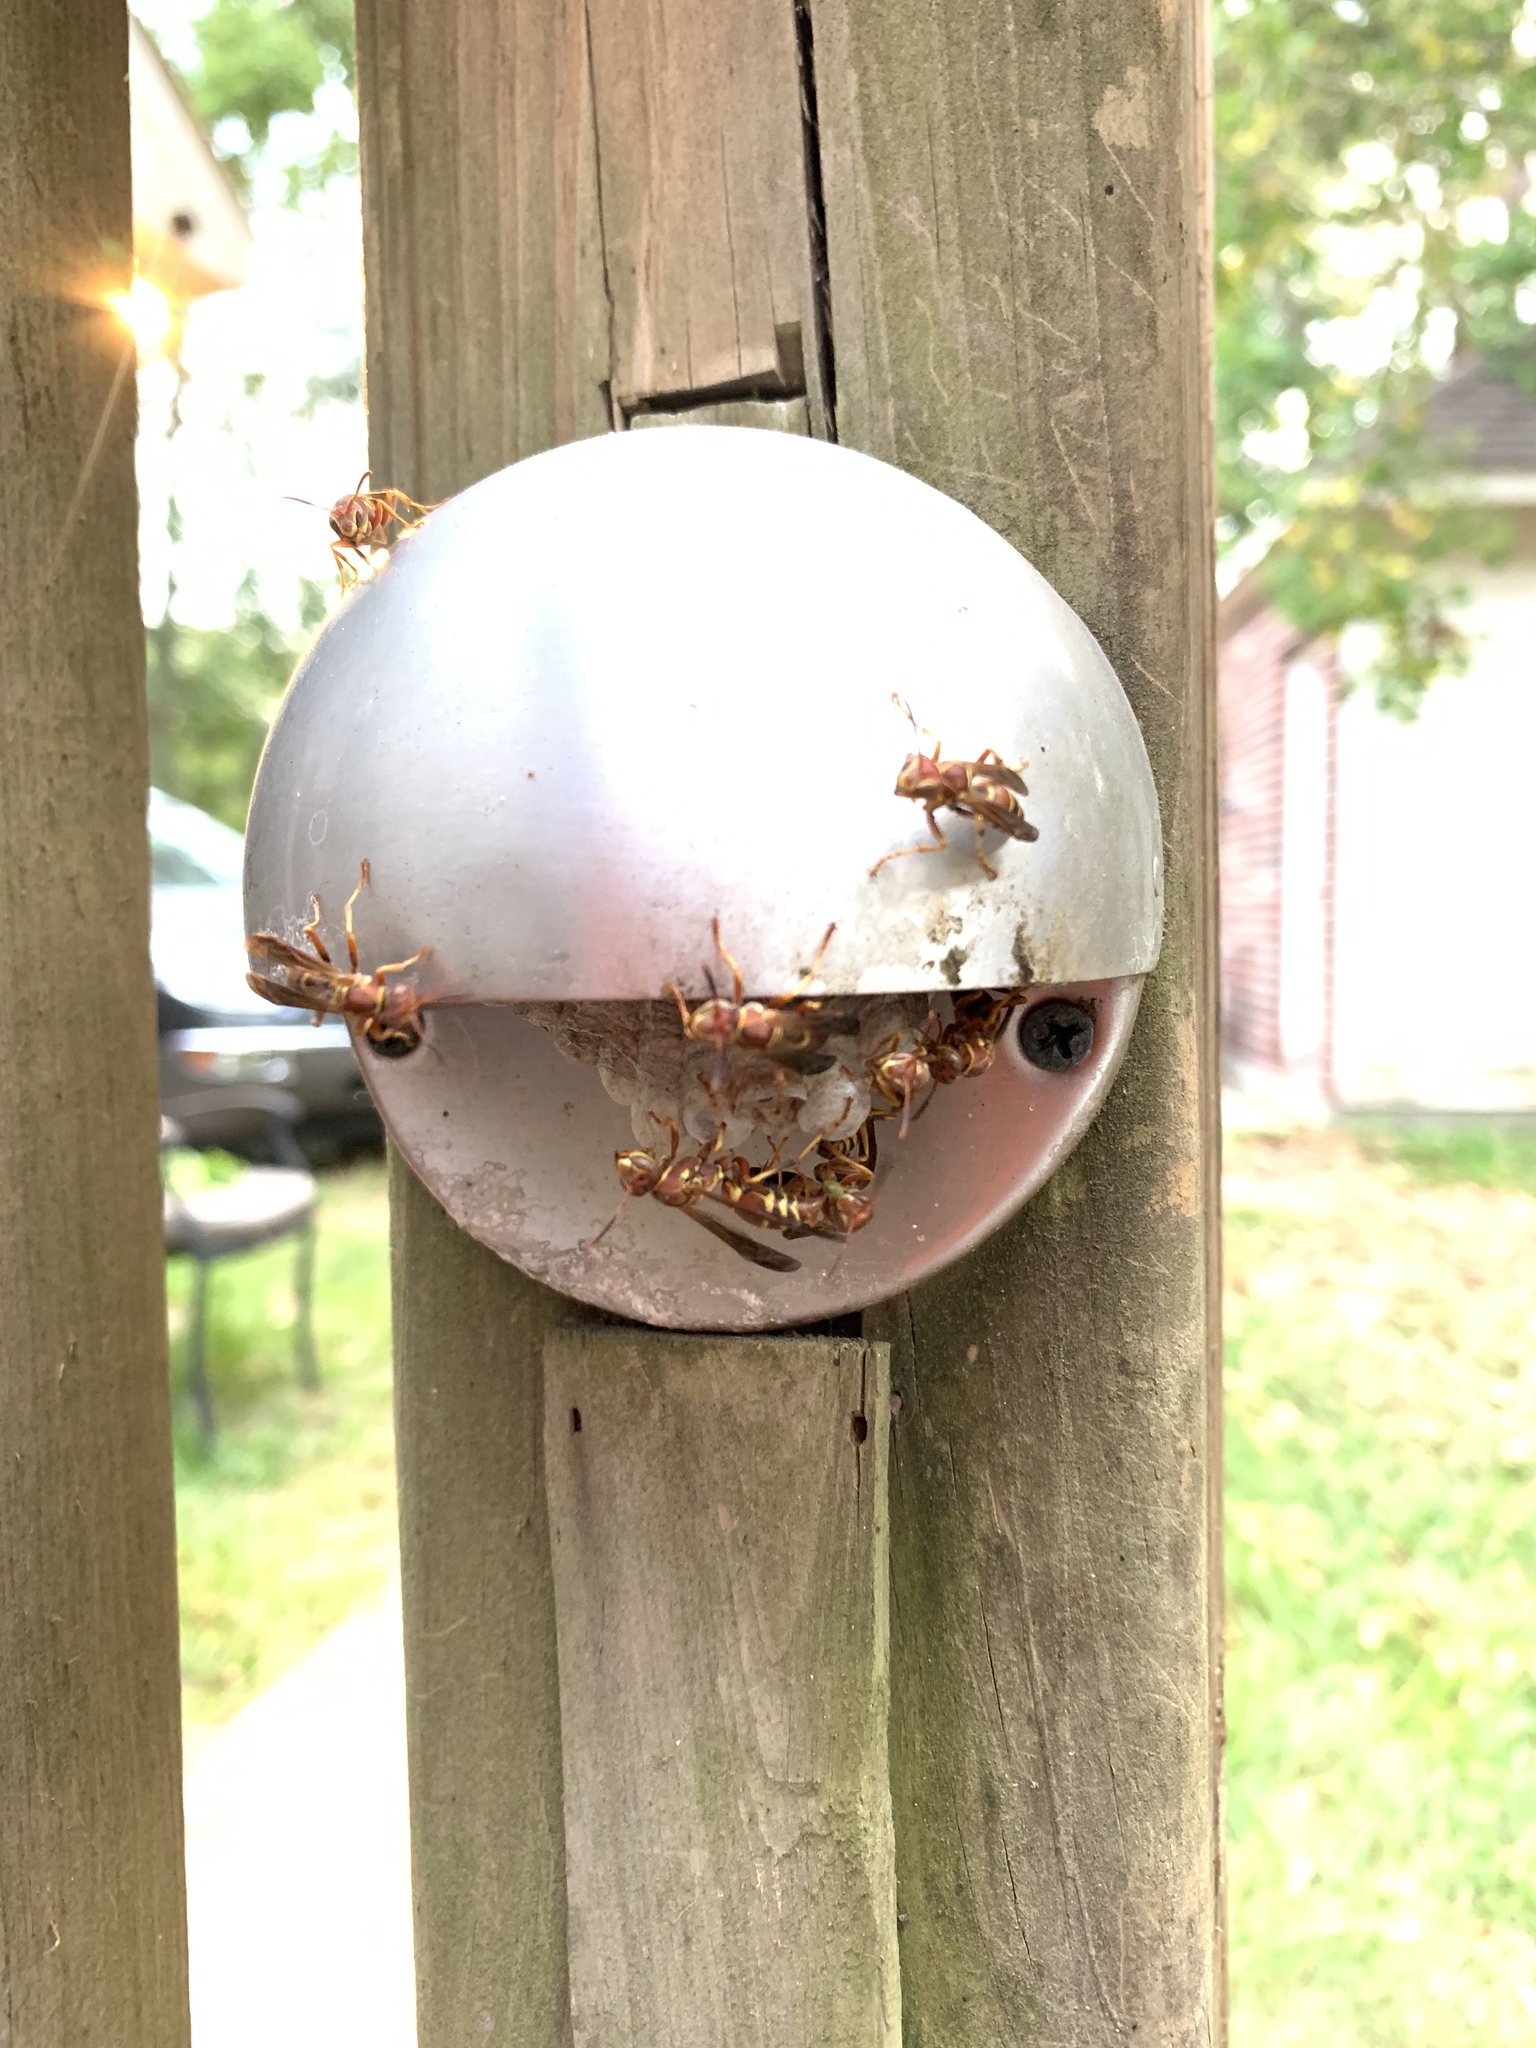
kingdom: Animalia
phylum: Arthropoda
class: Insecta
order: Hymenoptera
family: Eumenidae
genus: Polistes
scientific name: Polistes dorsalis
